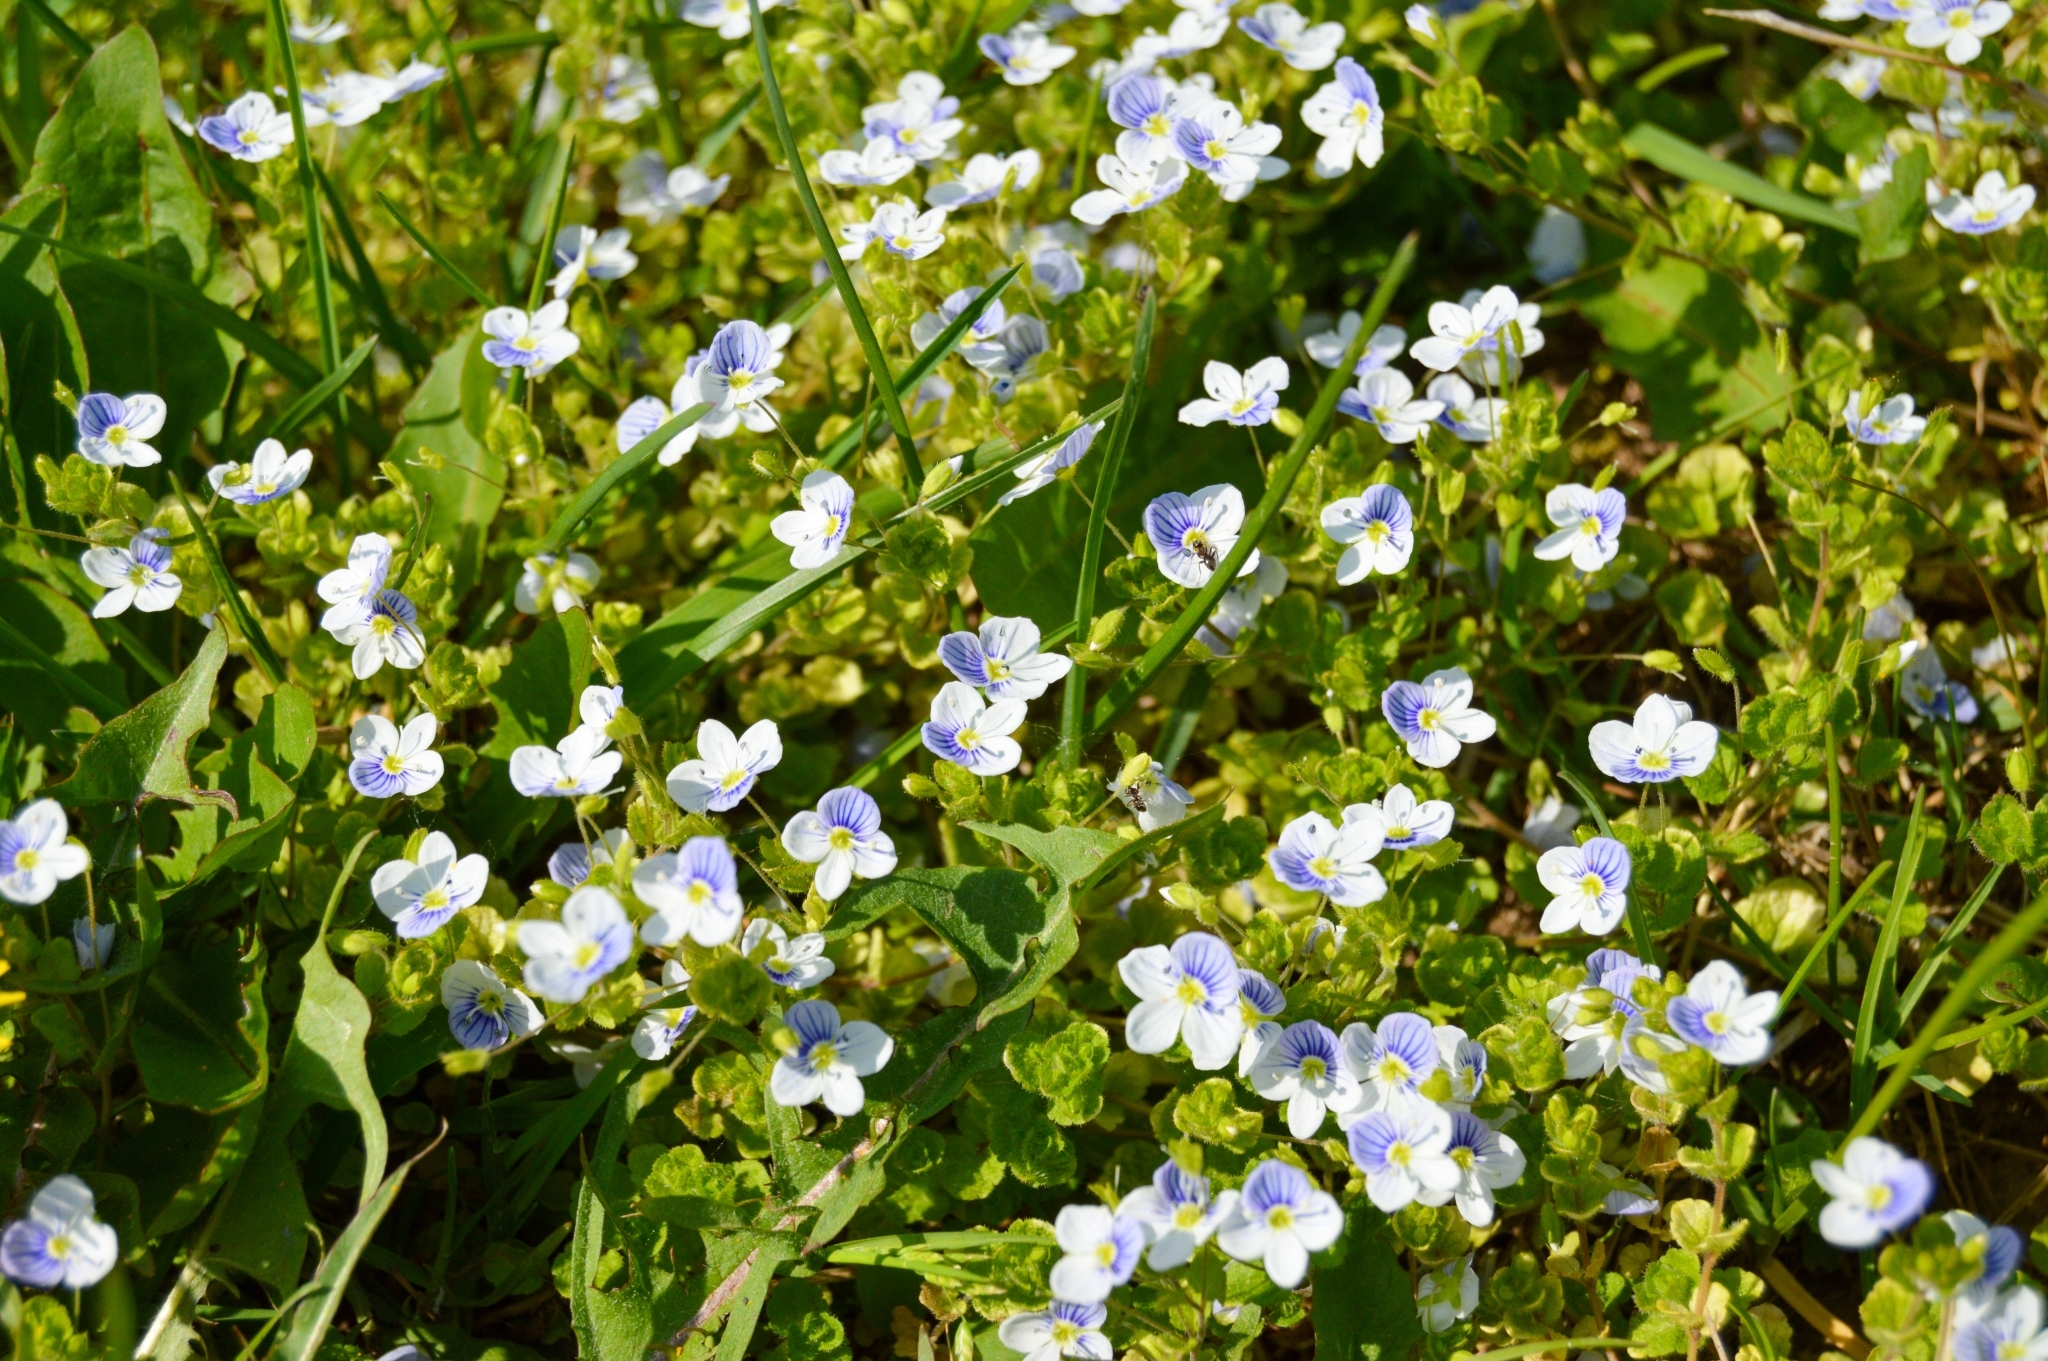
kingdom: Plantae
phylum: Tracheophyta
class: Magnoliopsida
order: Lamiales
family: Plantaginaceae
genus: Veronica
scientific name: Veronica filiformis
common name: Slender speedwell
